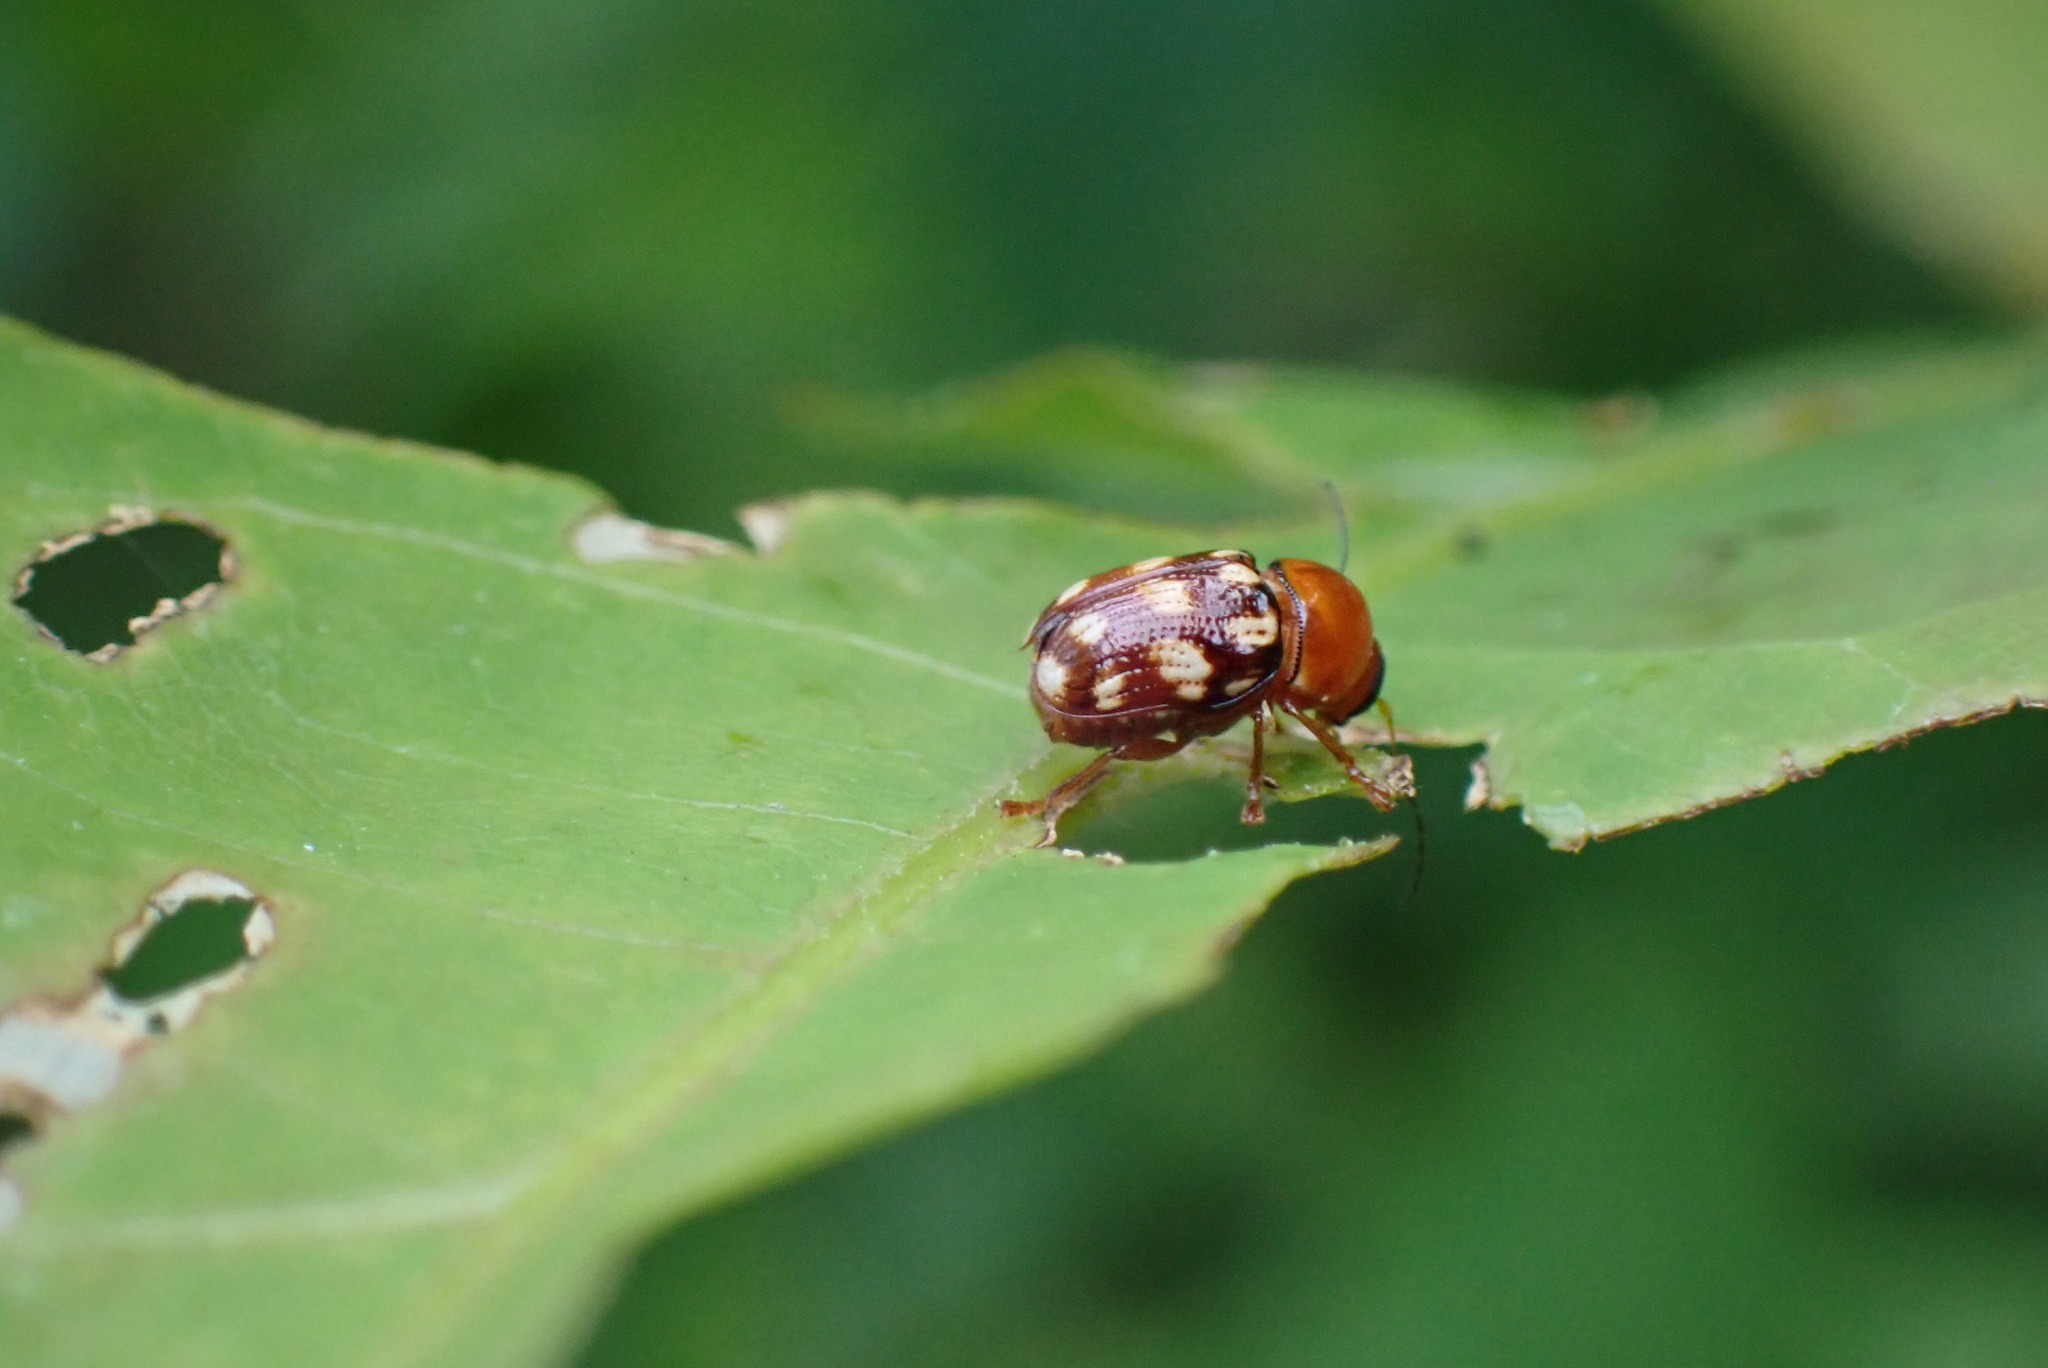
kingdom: Animalia
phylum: Arthropoda
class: Insecta
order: Coleoptera
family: Chrysomelidae
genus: Cryptocephalus
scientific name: Cryptocephalus guttulatus
